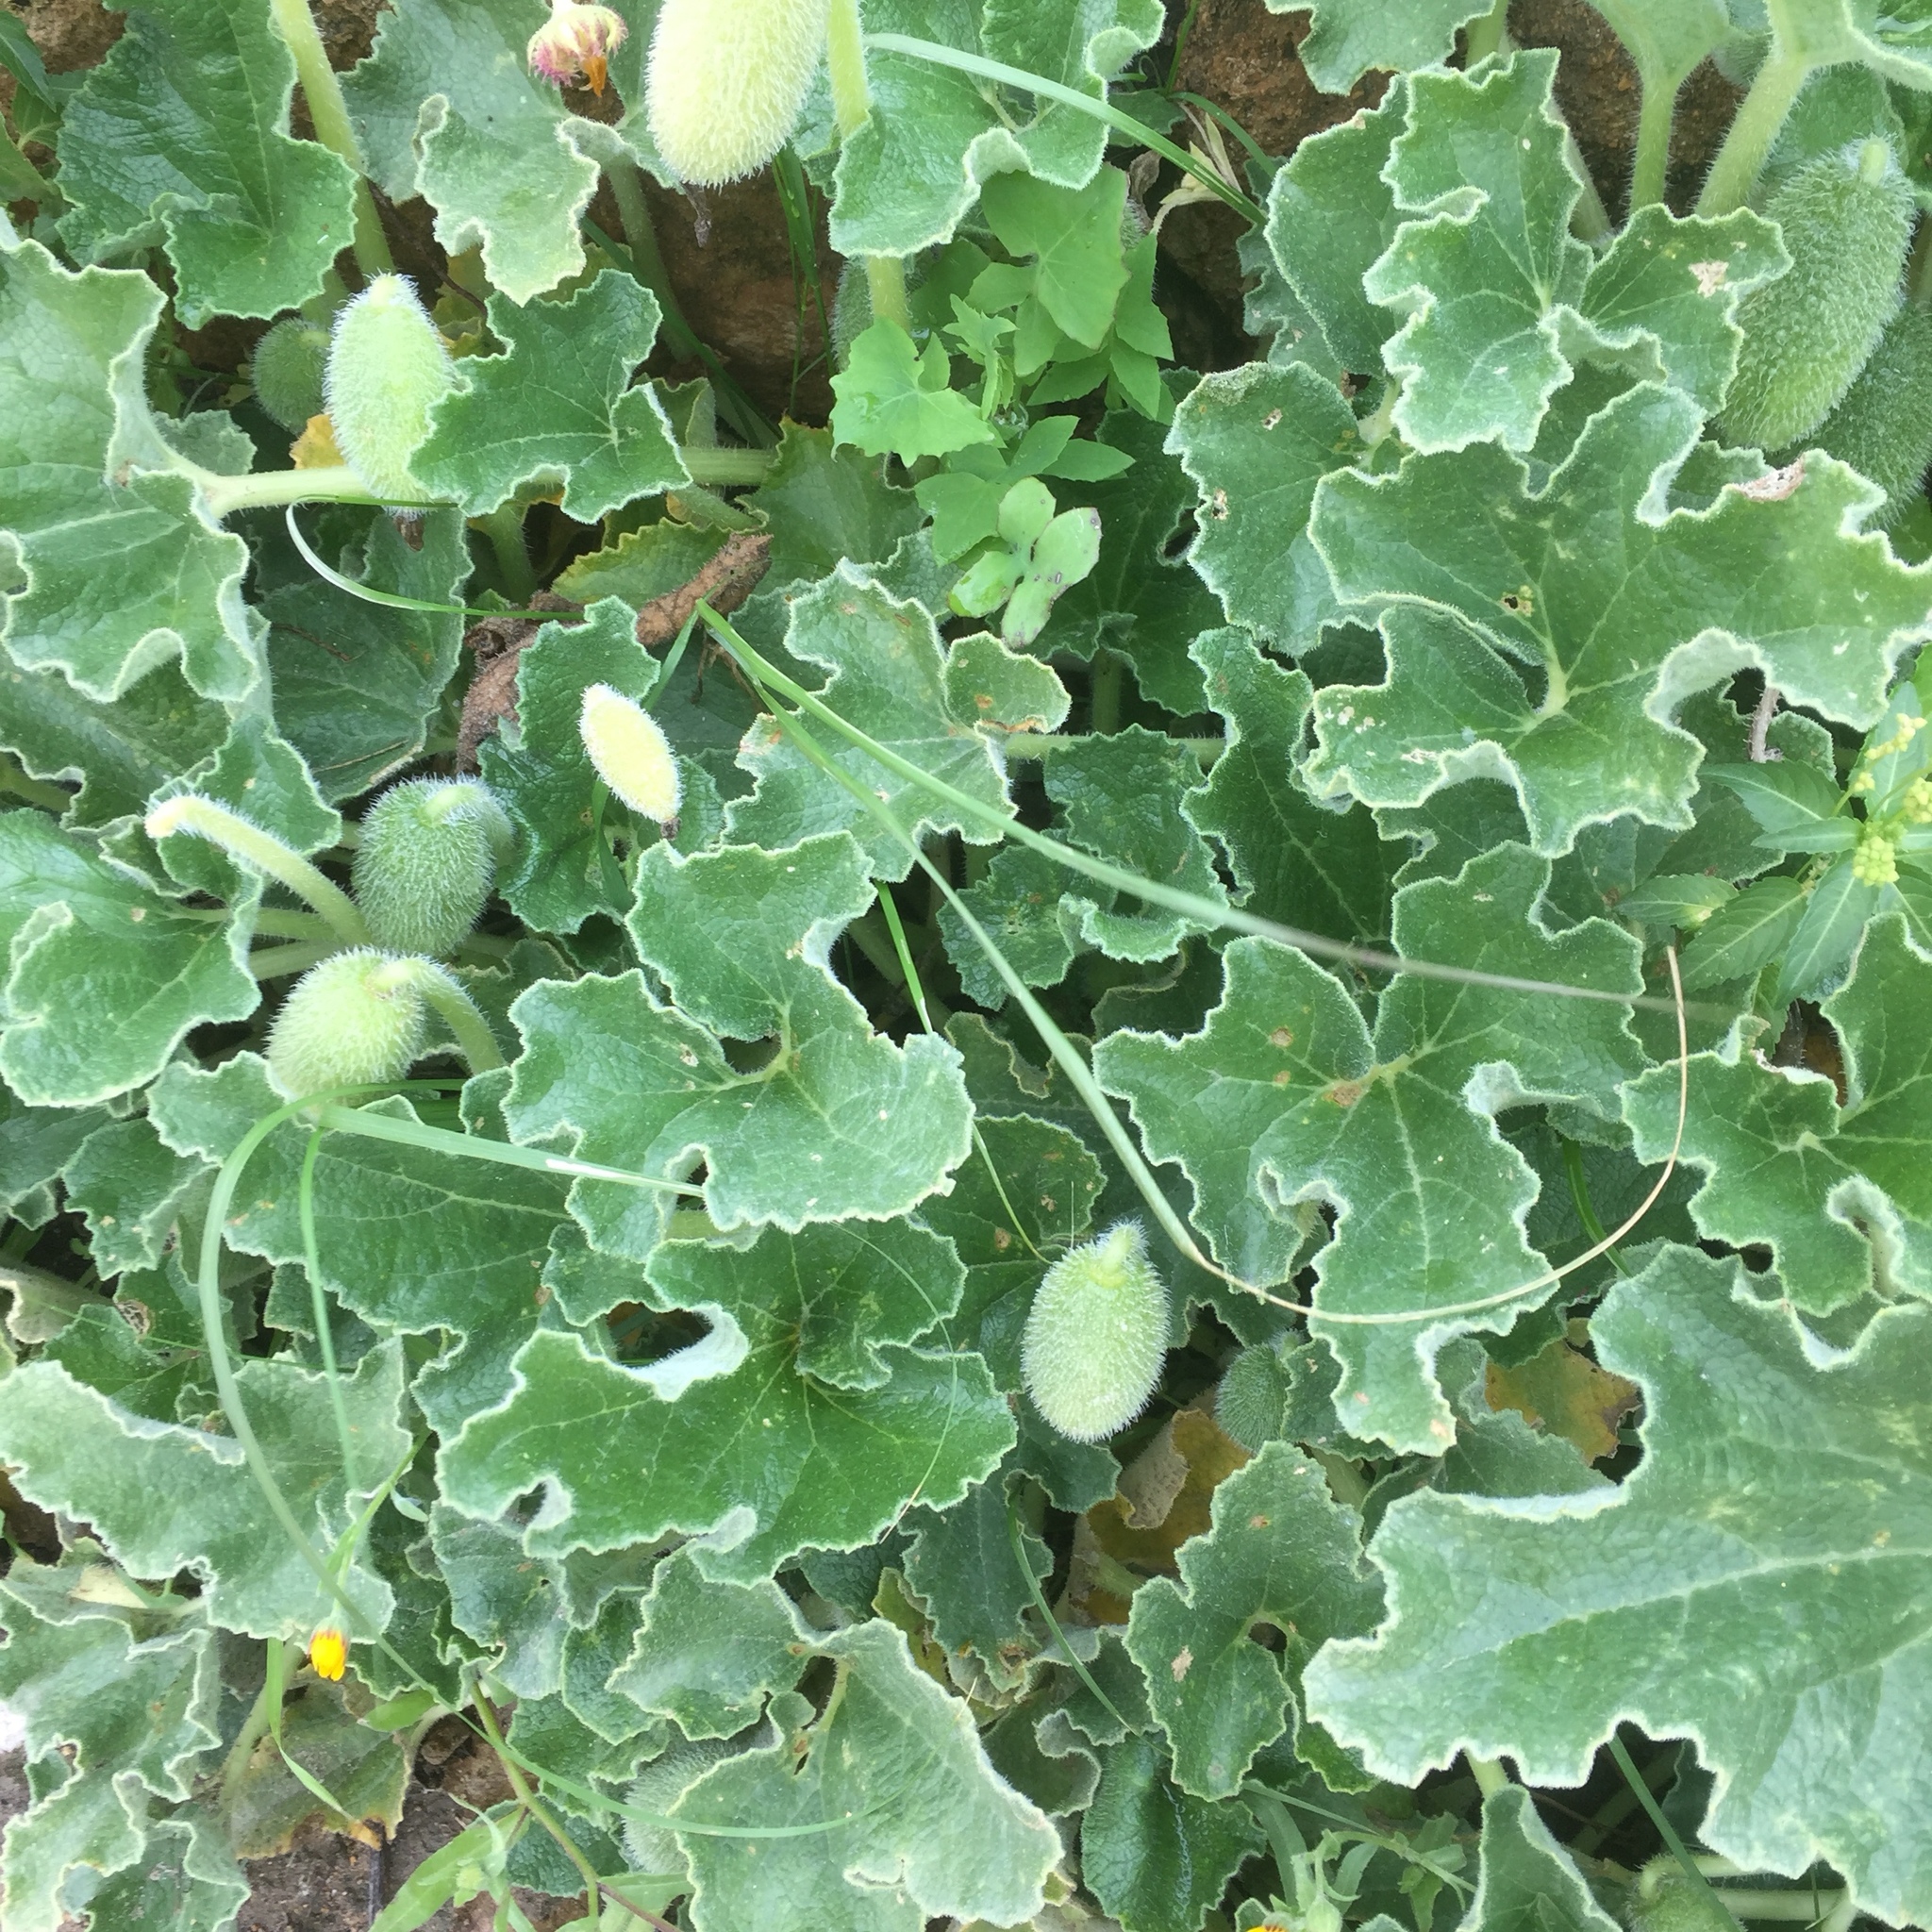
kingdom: Plantae
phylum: Tracheophyta
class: Magnoliopsida
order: Cucurbitales
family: Cucurbitaceae
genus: Ecballium
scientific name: Ecballium elaterium
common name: Squirting cucumber
